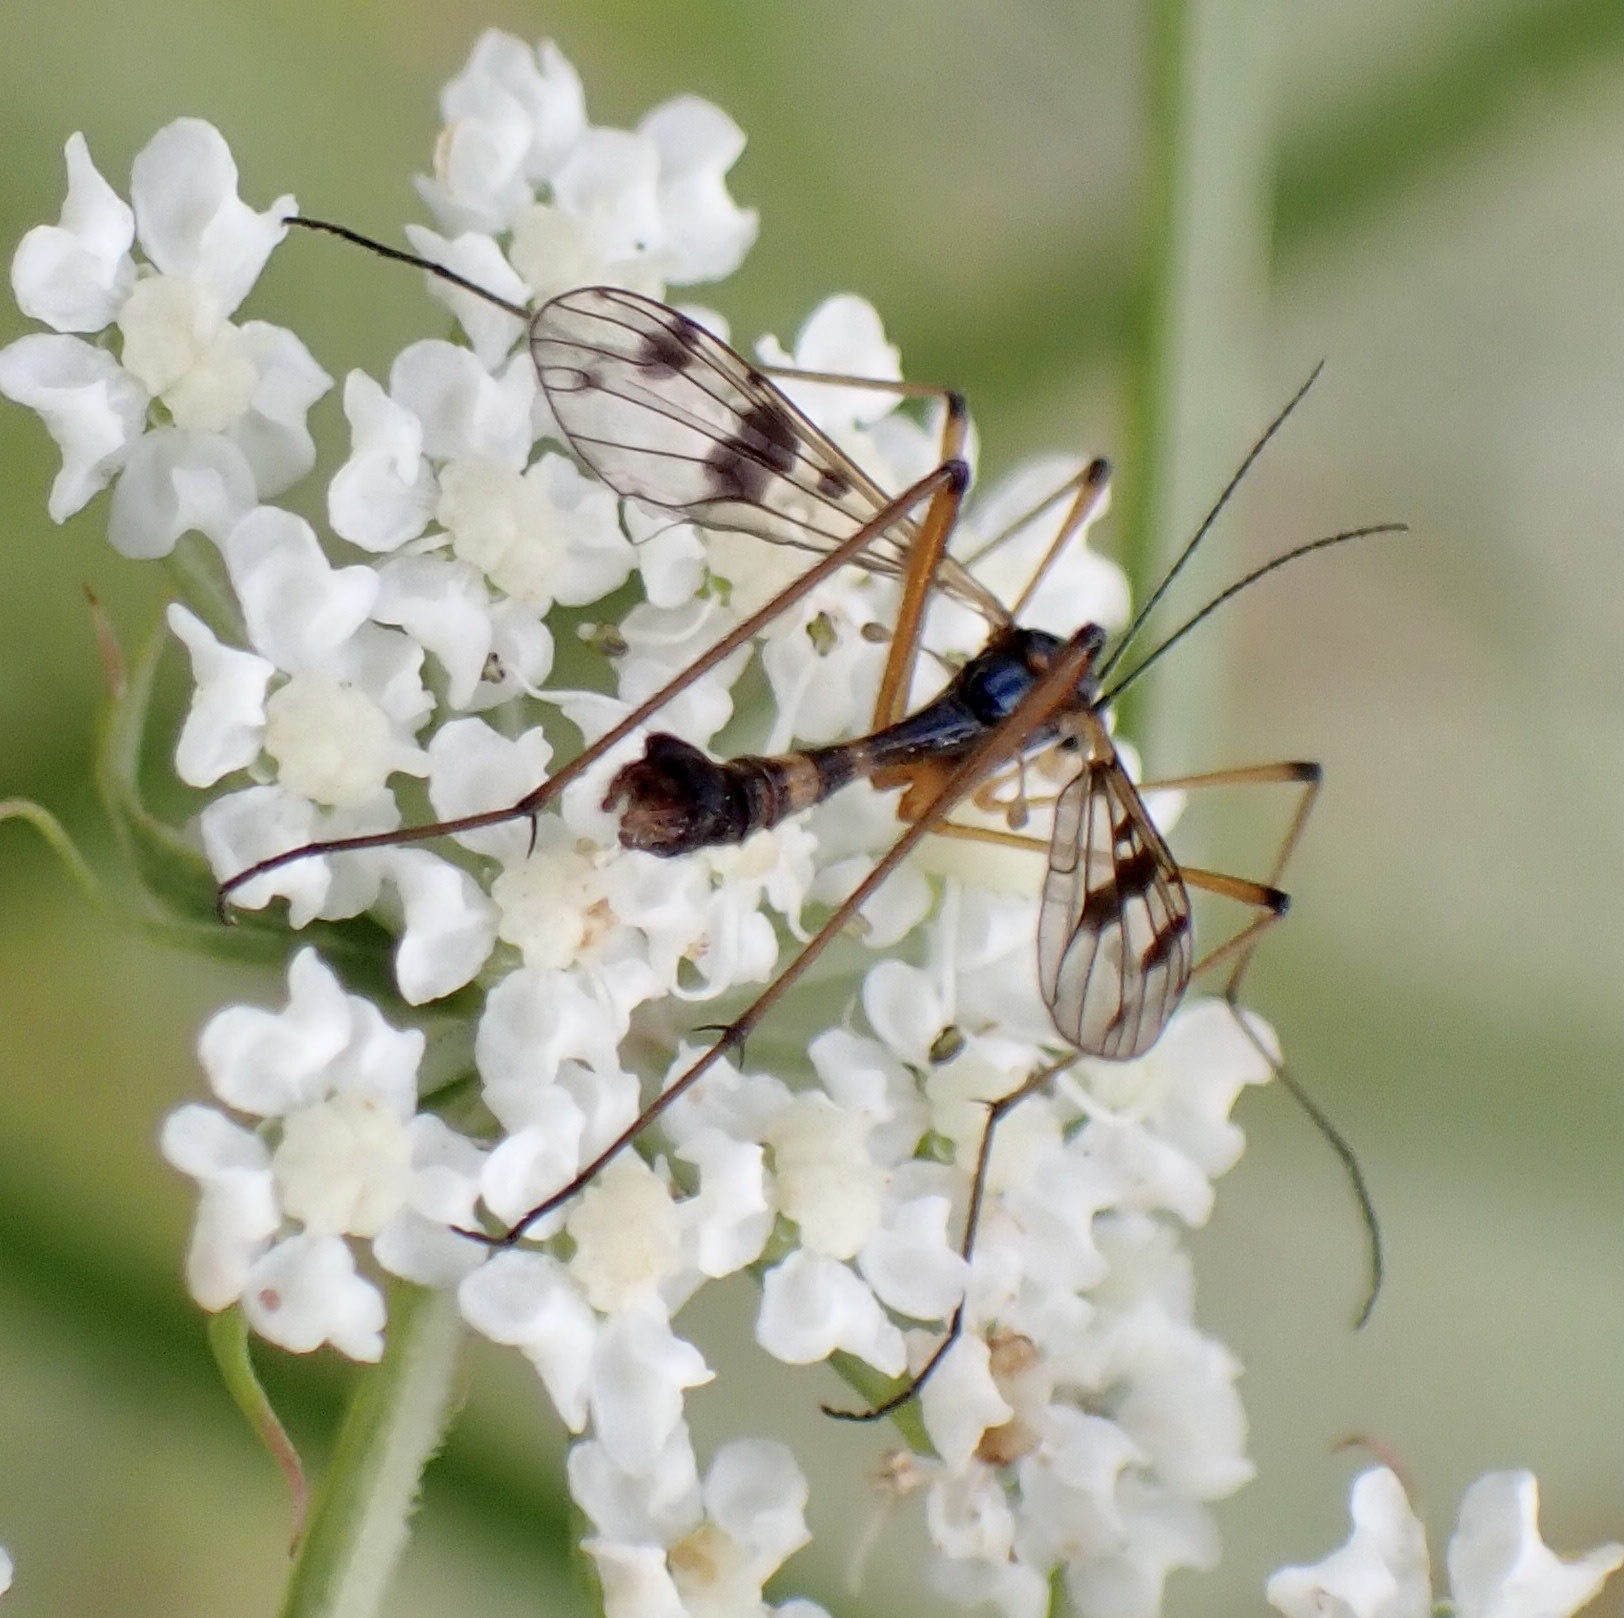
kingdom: Animalia
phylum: Arthropoda
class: Insecta
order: Diptera
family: Ptychopteridae
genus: Ptychoptera
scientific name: Ptychoptera contaminata
